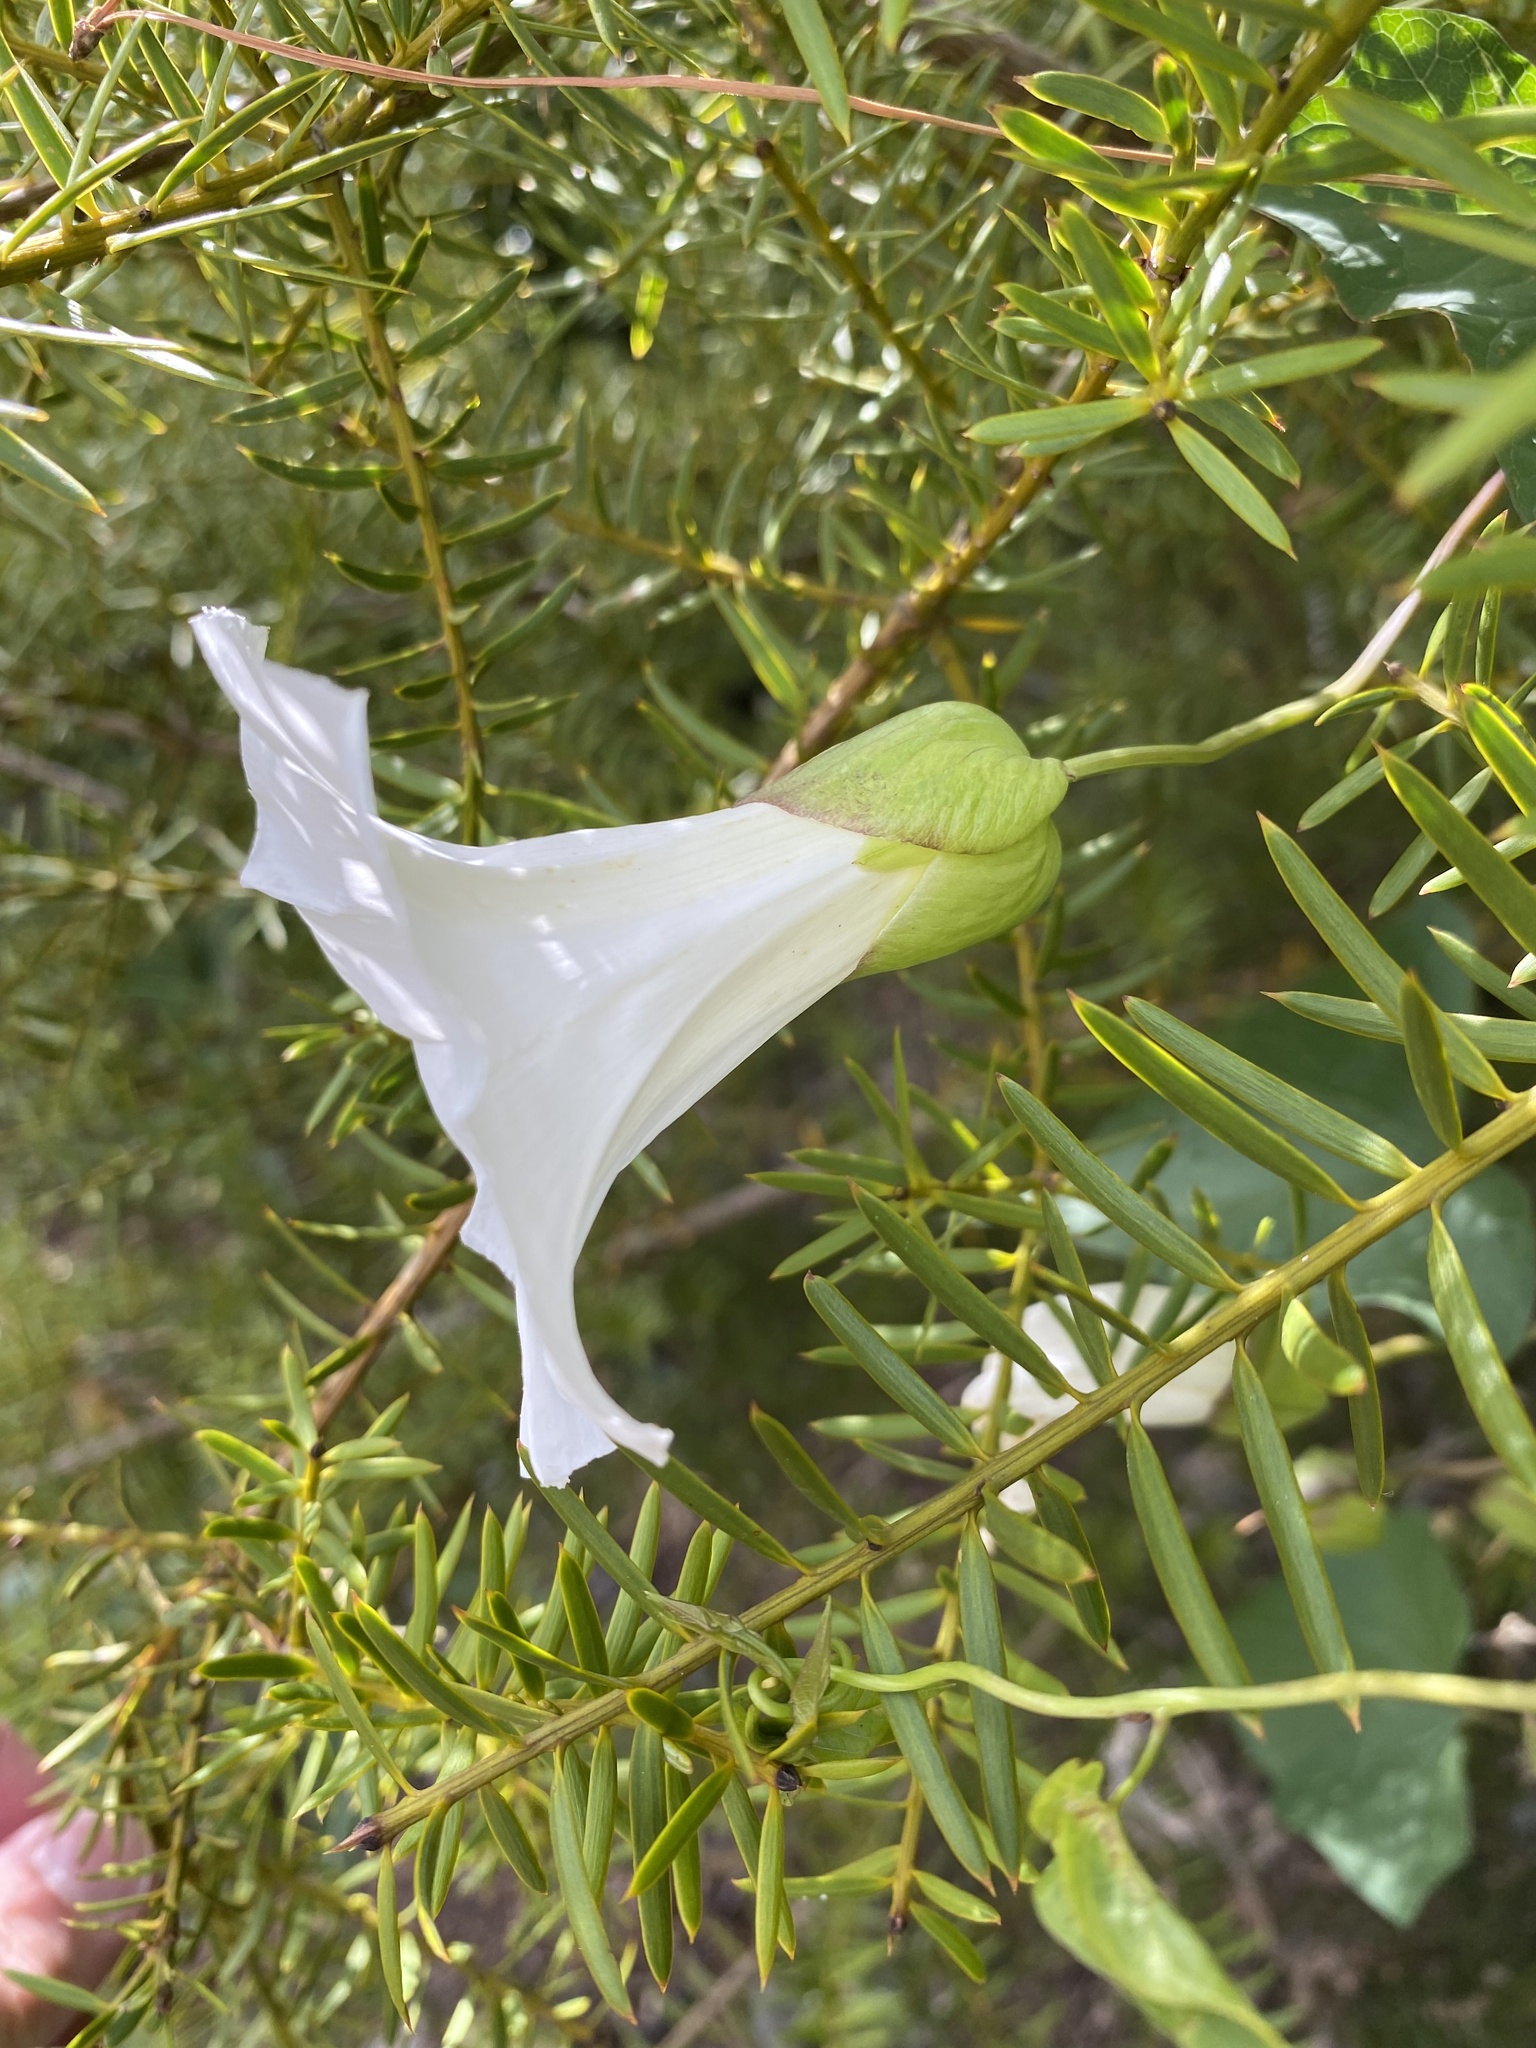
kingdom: Plantae
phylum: Tracheophyta
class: Magnoliopsida
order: Solanales
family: Convolvulaceae
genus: Calystegia
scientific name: Calystegia silvatica
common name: Large bindweed
